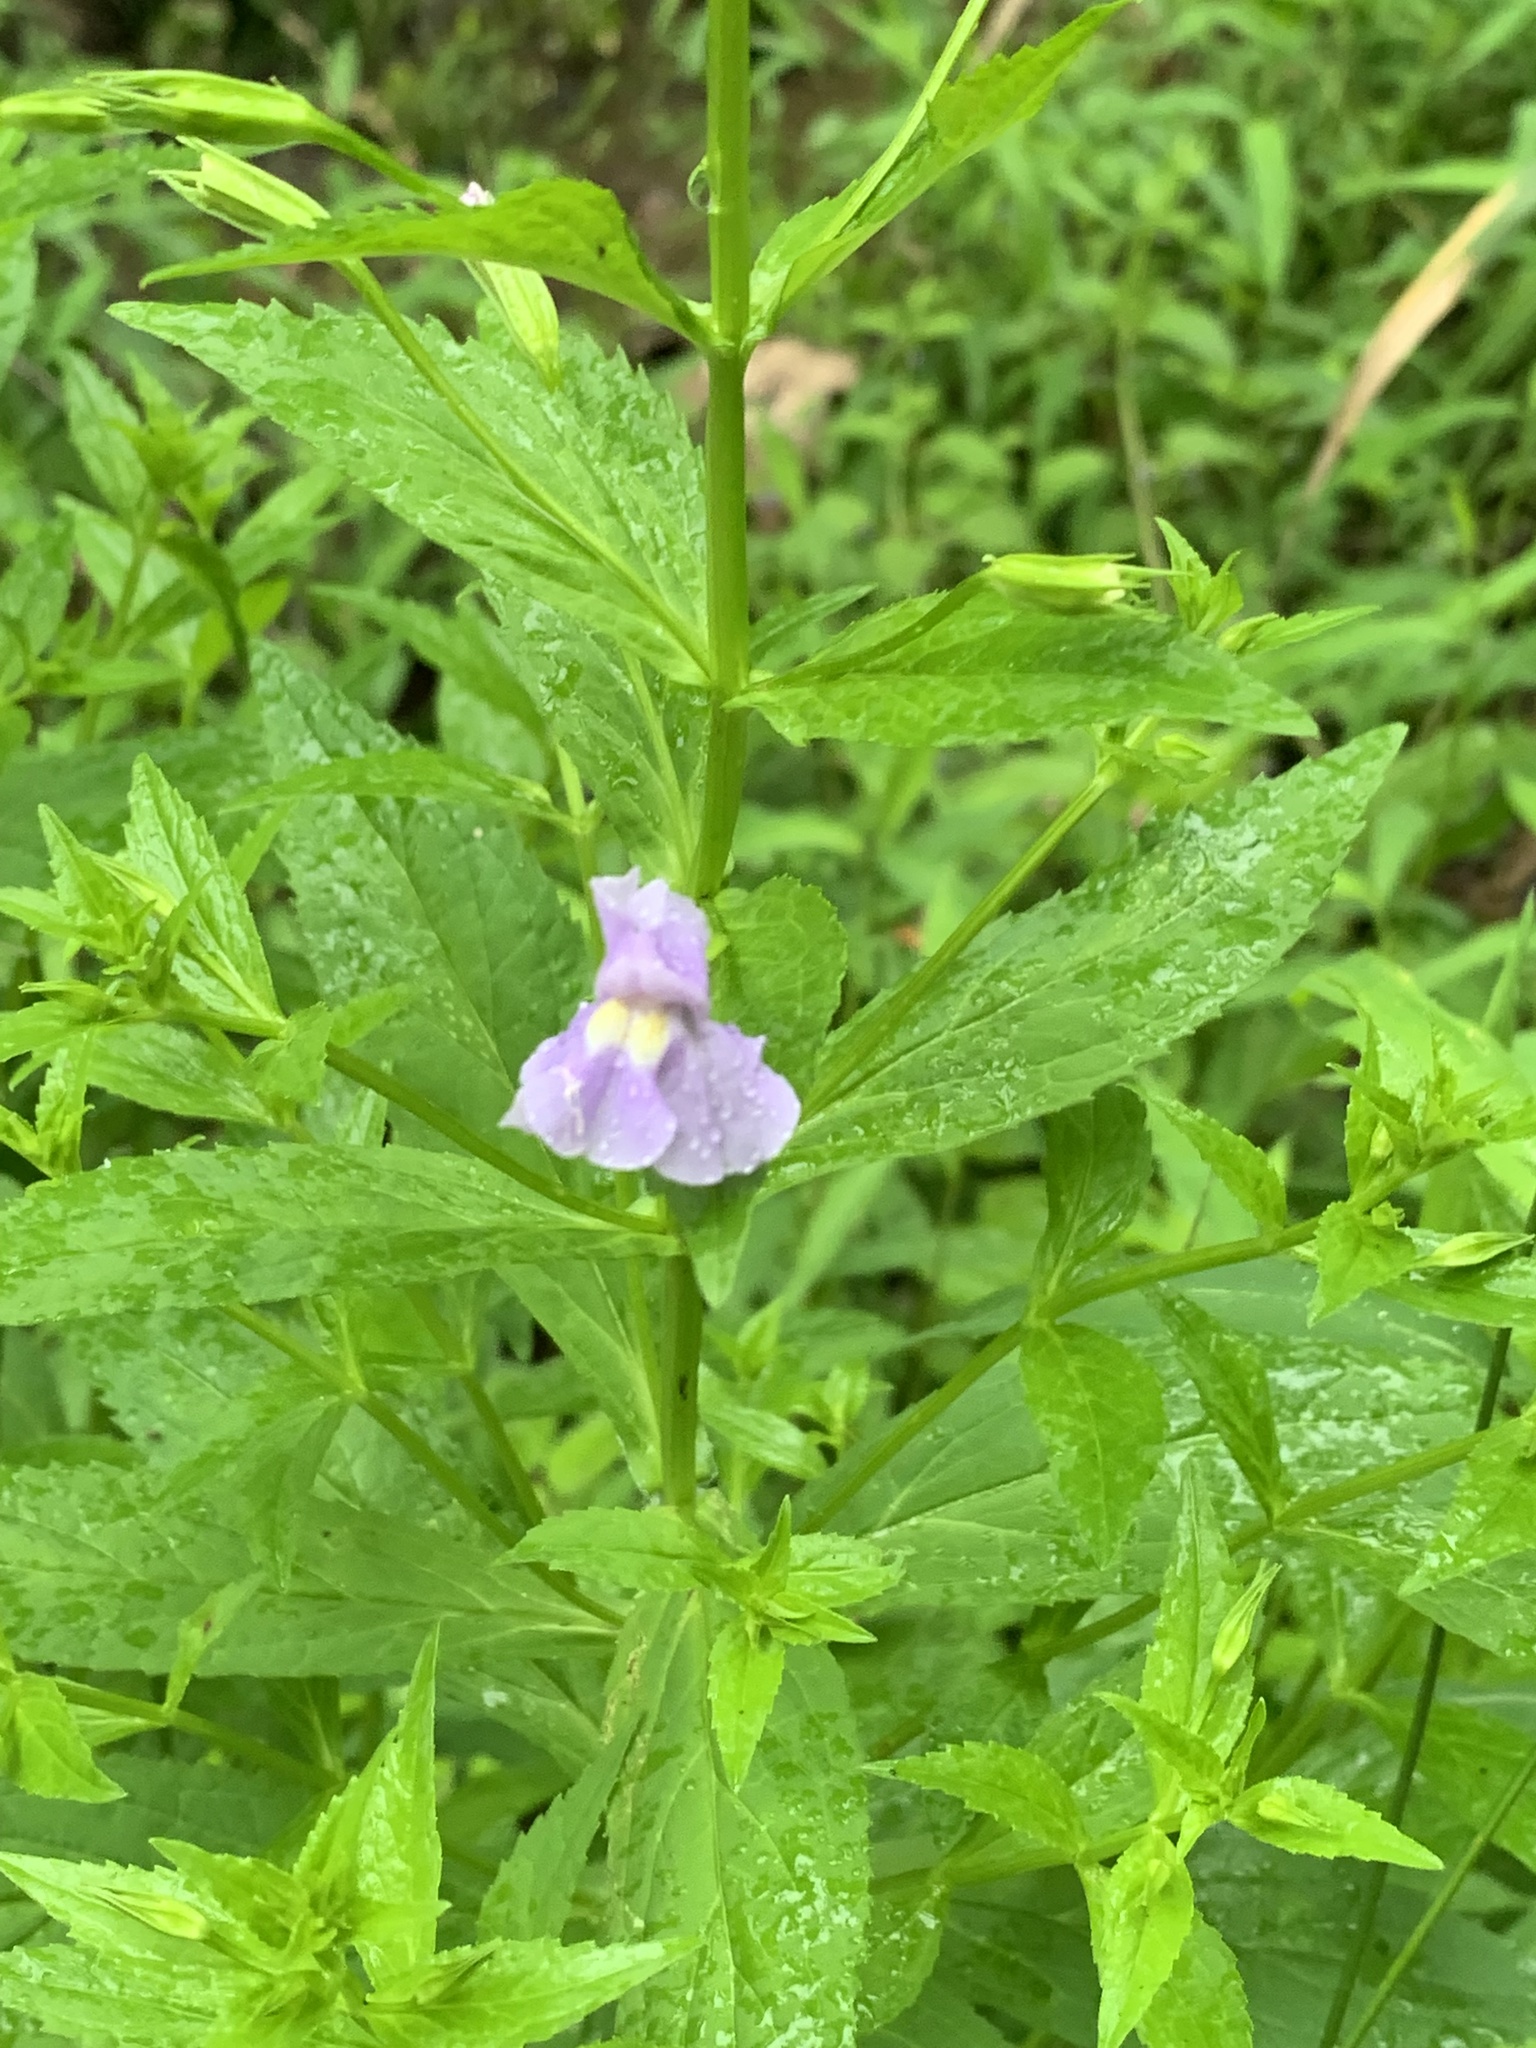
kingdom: Plantae
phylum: Tracheophyta
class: Magnoliopsida
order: Lamiales
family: Phrymaceae
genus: Mimulus
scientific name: Mimulus ringens
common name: Allegheny monkeyflower
